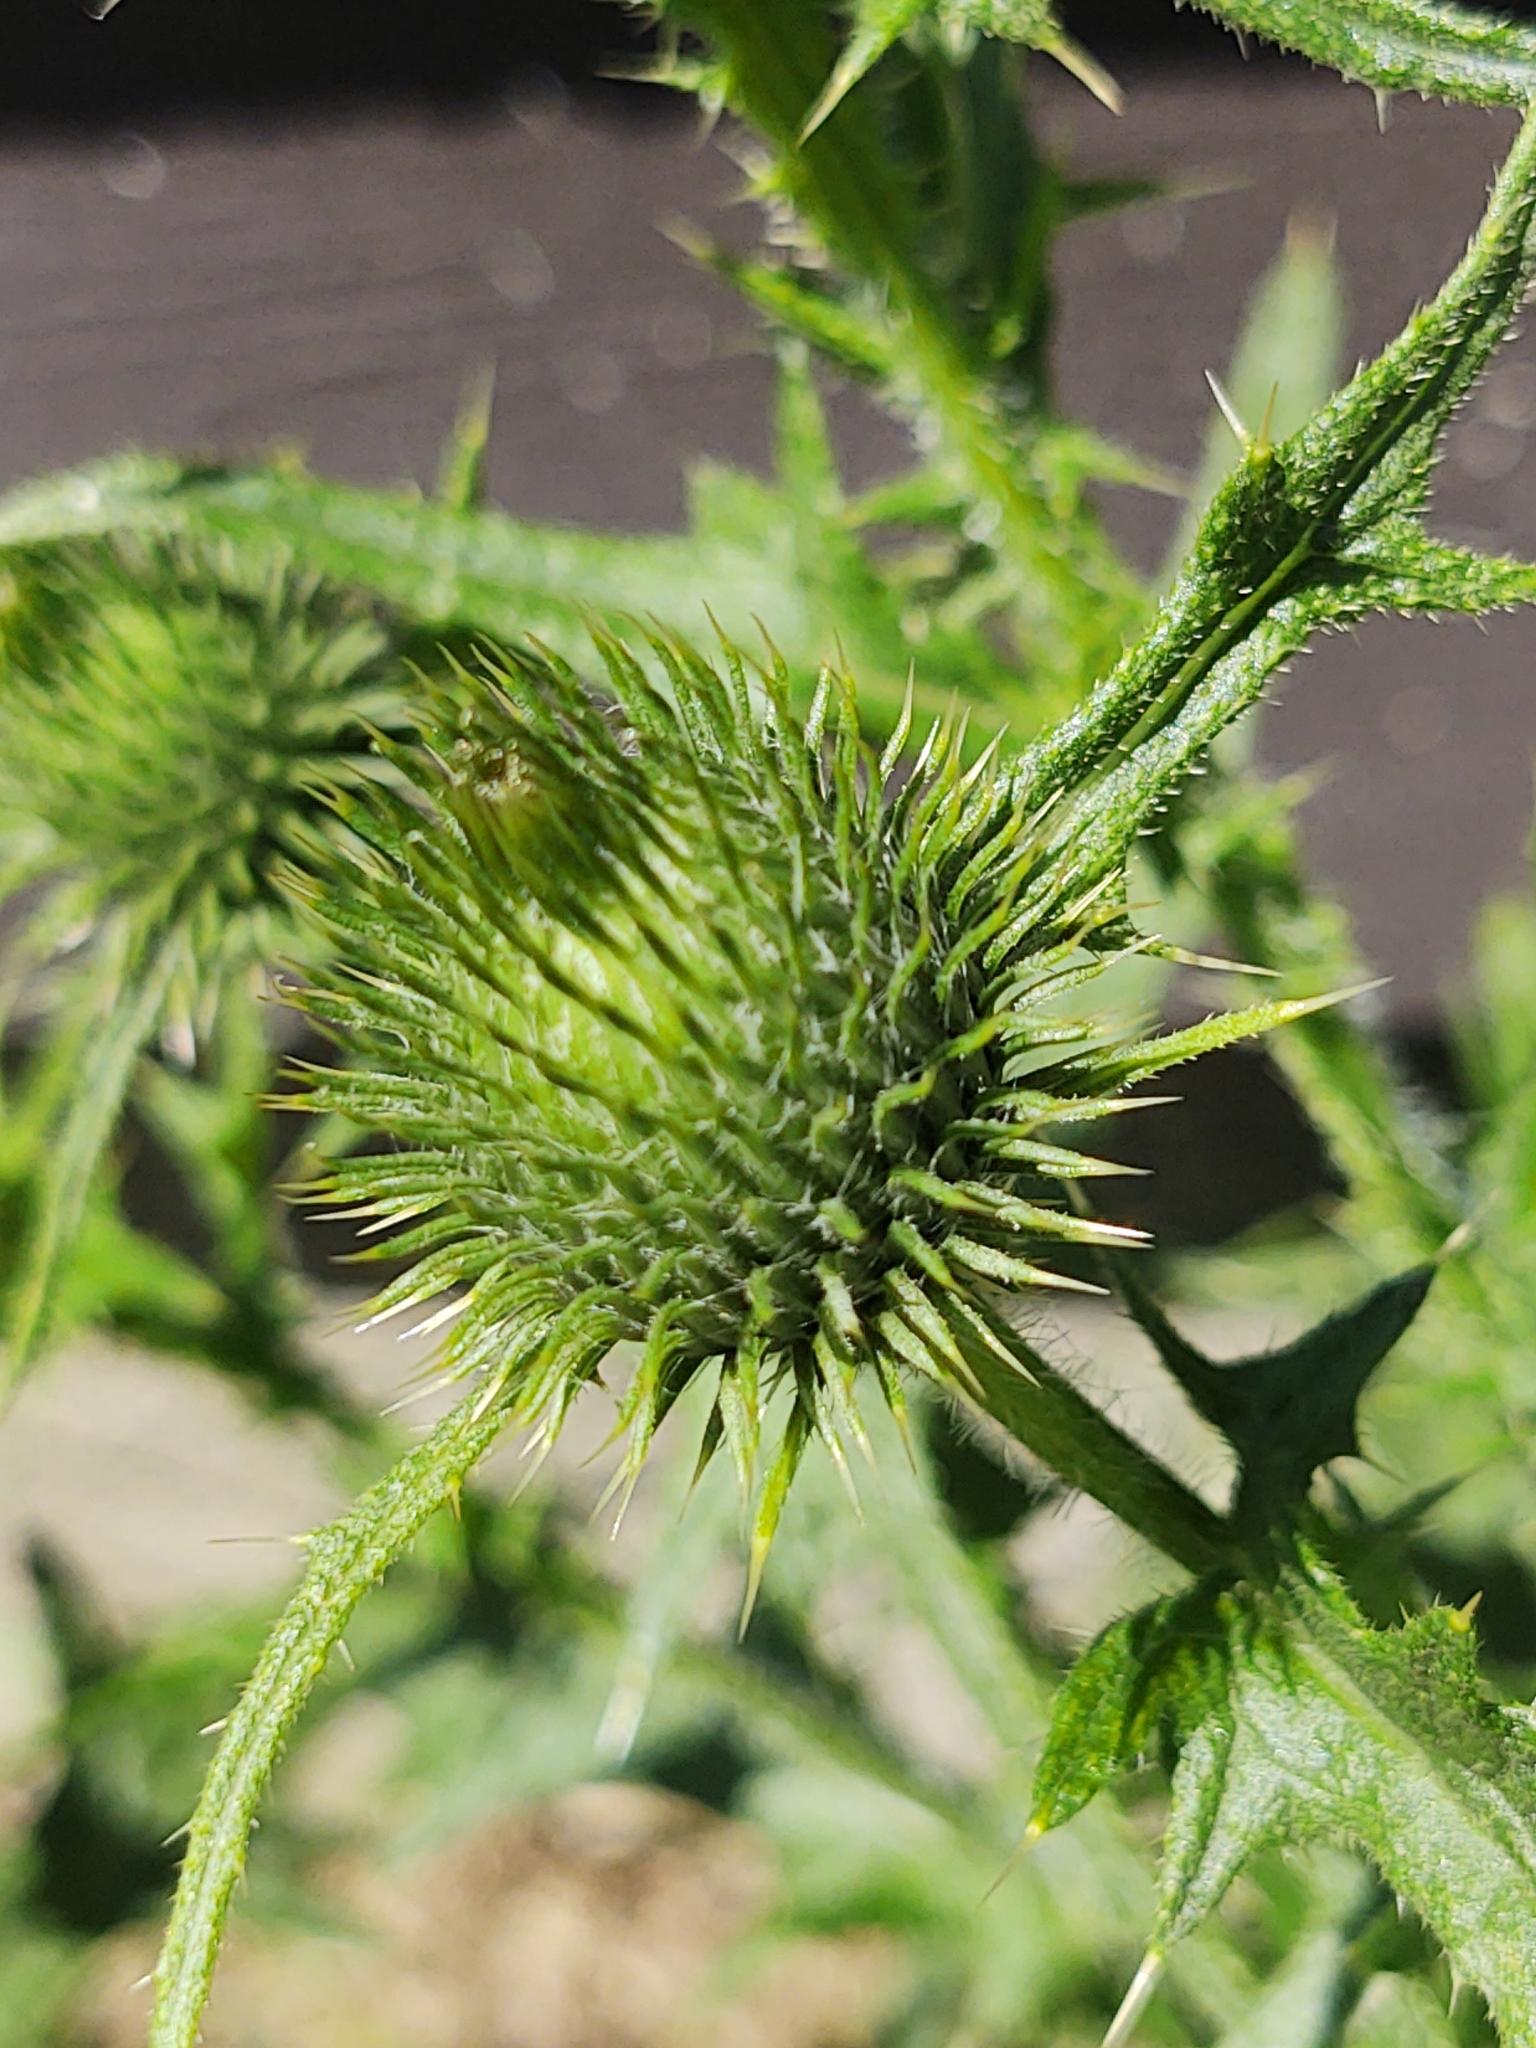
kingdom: Plantae
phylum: Tracheophyta
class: Magnoliopsida
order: Asterales
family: Asteraceae
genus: Cirsium
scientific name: Cirsium vulgare
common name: Bull thistle
